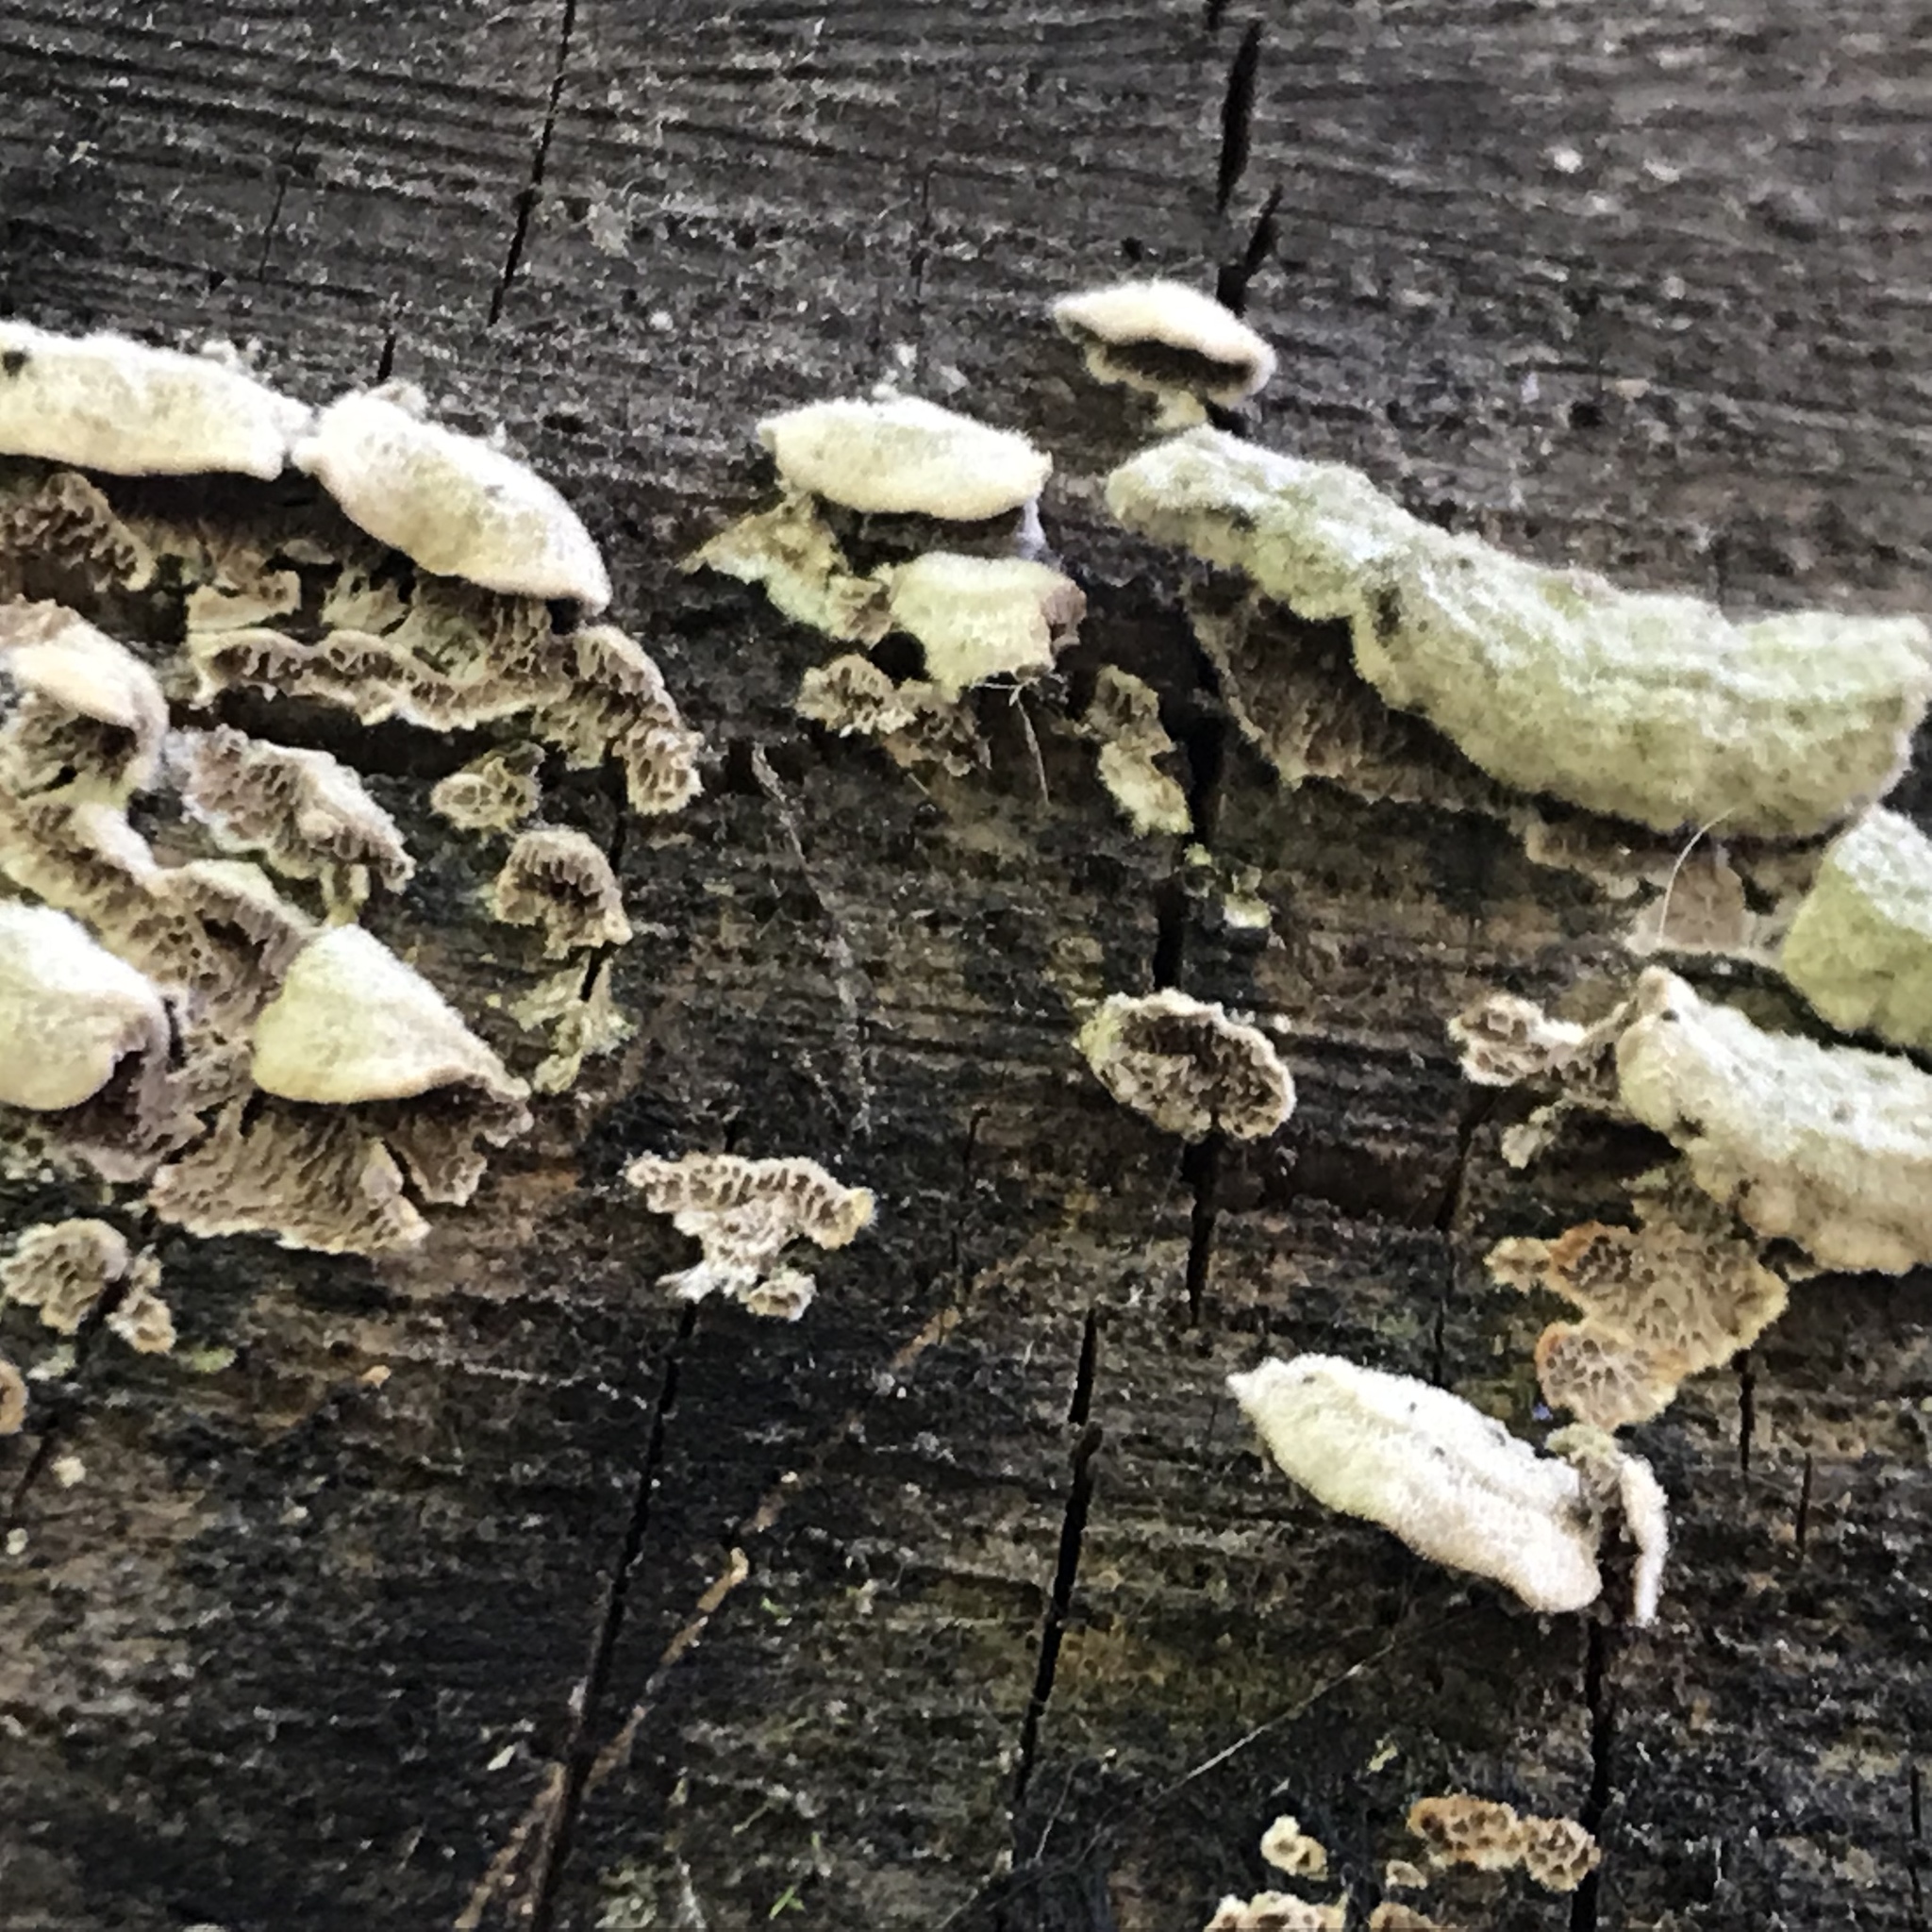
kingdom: Fungi
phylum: Basidiomycota
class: Agaricomycetes
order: Polyporales
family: Polyporaceae
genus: Trametes
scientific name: Trametes villosa
